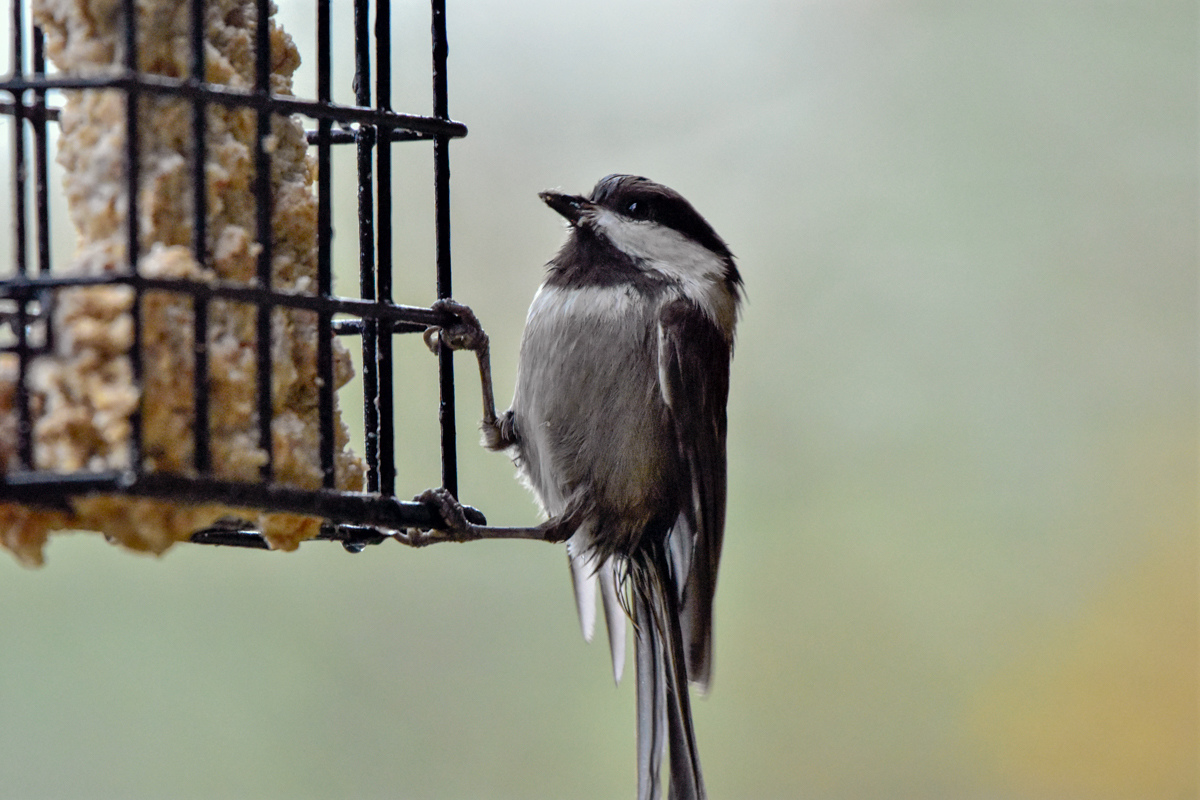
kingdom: Animalia
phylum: Chordata
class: Aves
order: Passeriformes
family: Paridae
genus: Poecile
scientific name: Poecile rufescens
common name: Chestnut-backed chickadee
